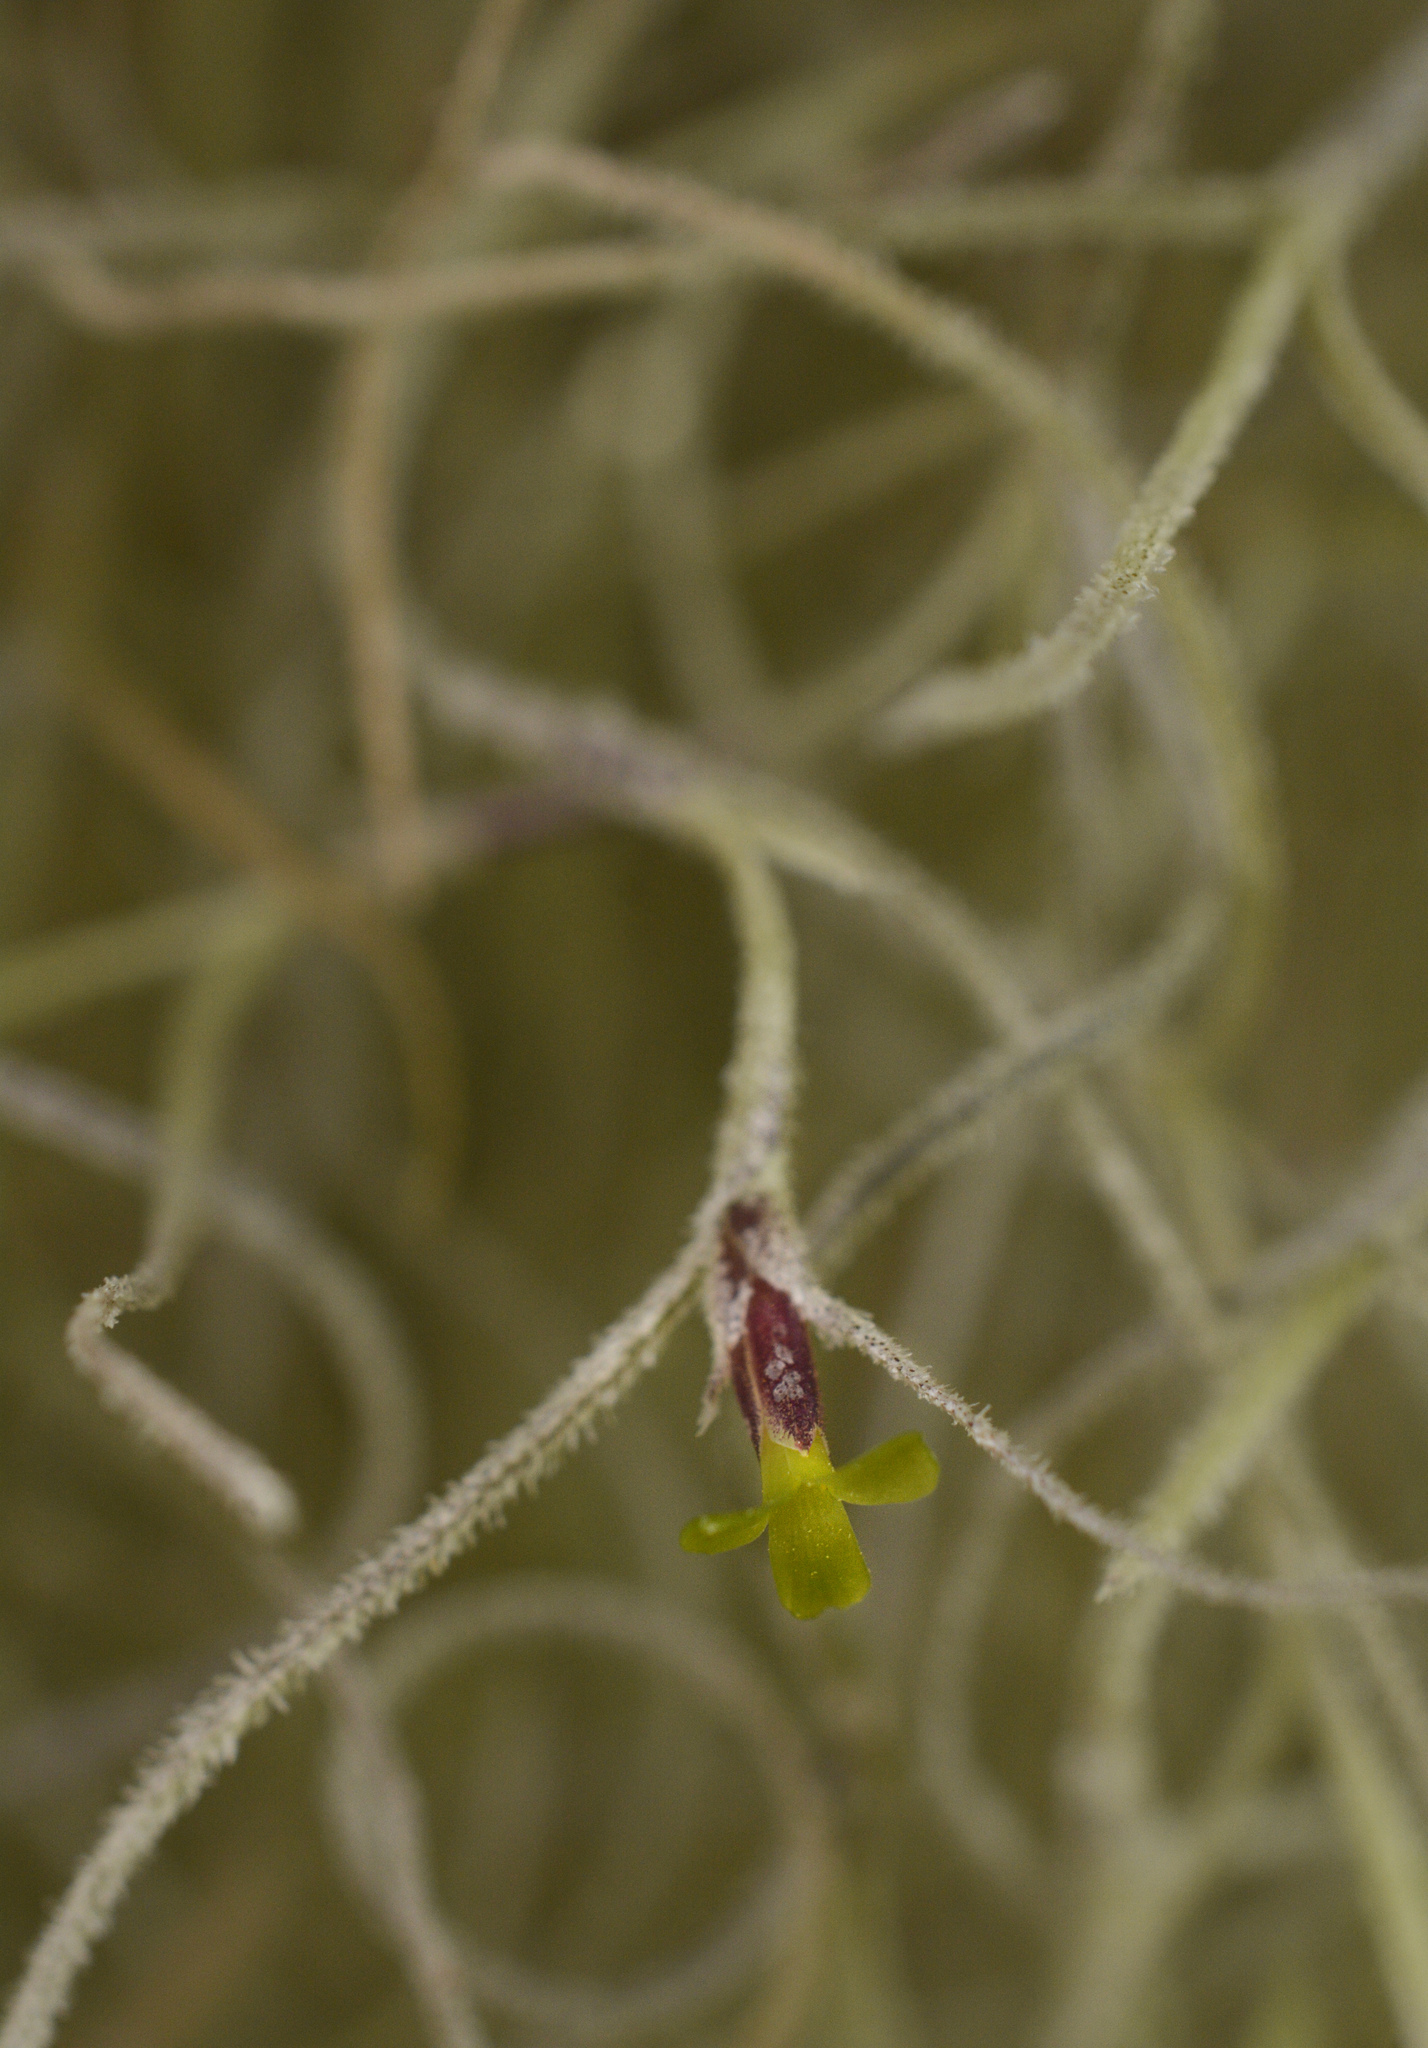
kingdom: Plantae
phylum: Tracheophyta
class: Liliopsida
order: Poales
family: Bromeliaceae
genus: Tillandsia
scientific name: Tillandsia usneoides
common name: Spanish moss
